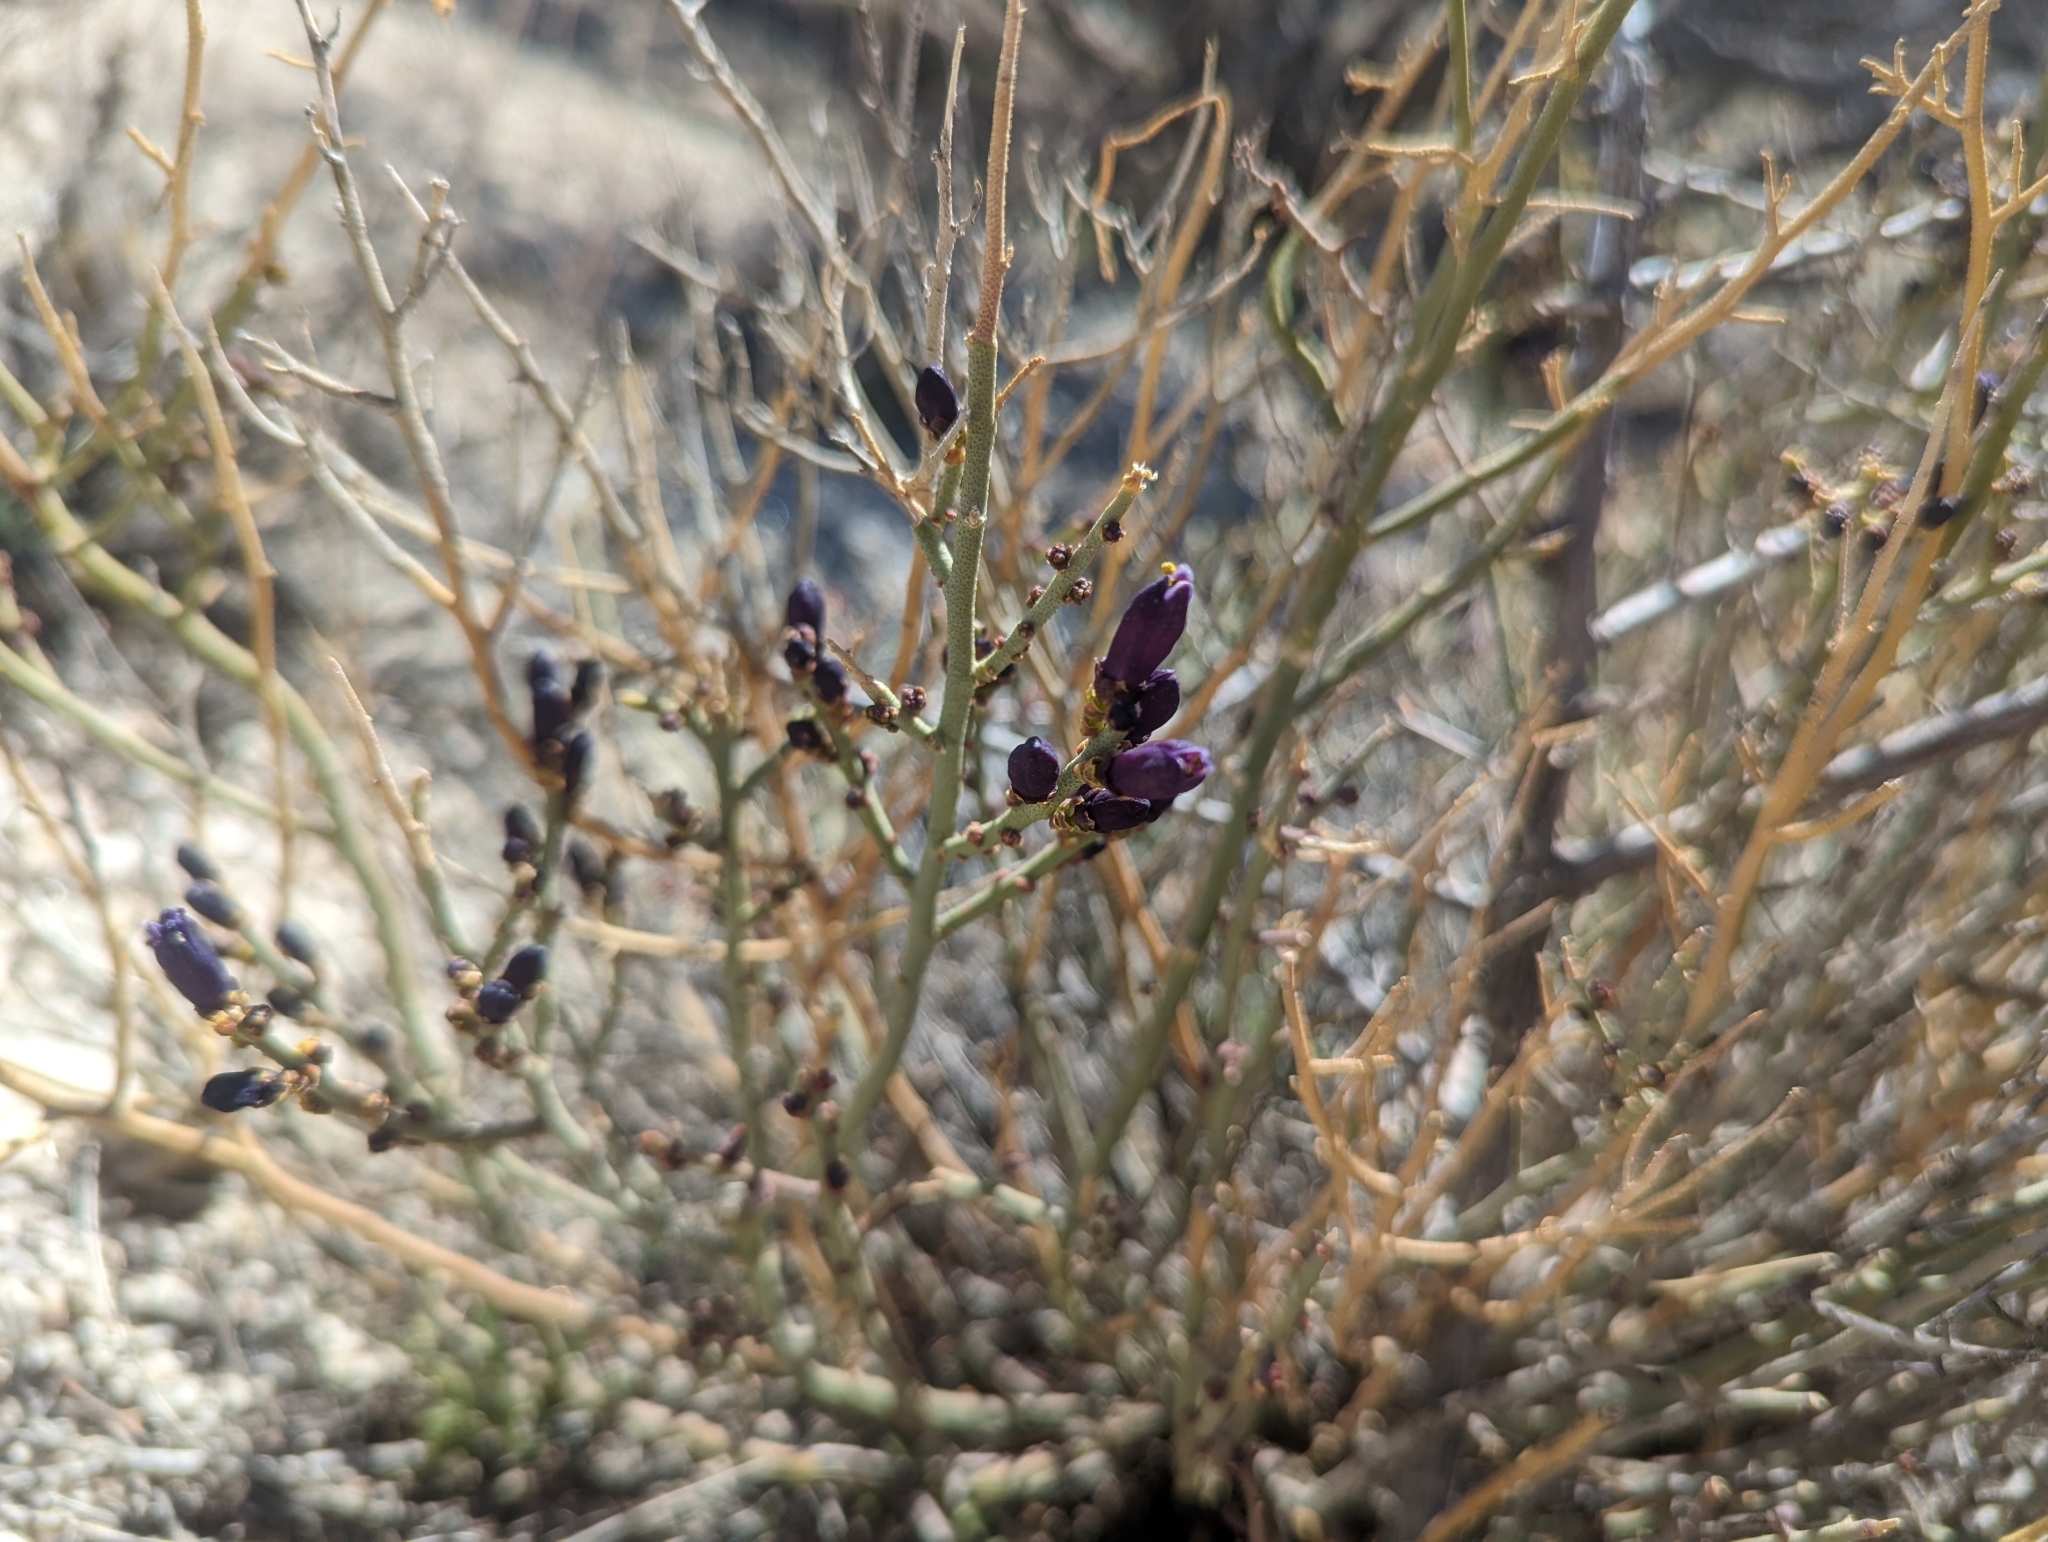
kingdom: Plantae
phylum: Tracheophyta
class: Magnoliopsida
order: Sapindales
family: Rutaceae
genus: Thamnosma
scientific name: Thamnosma montana
